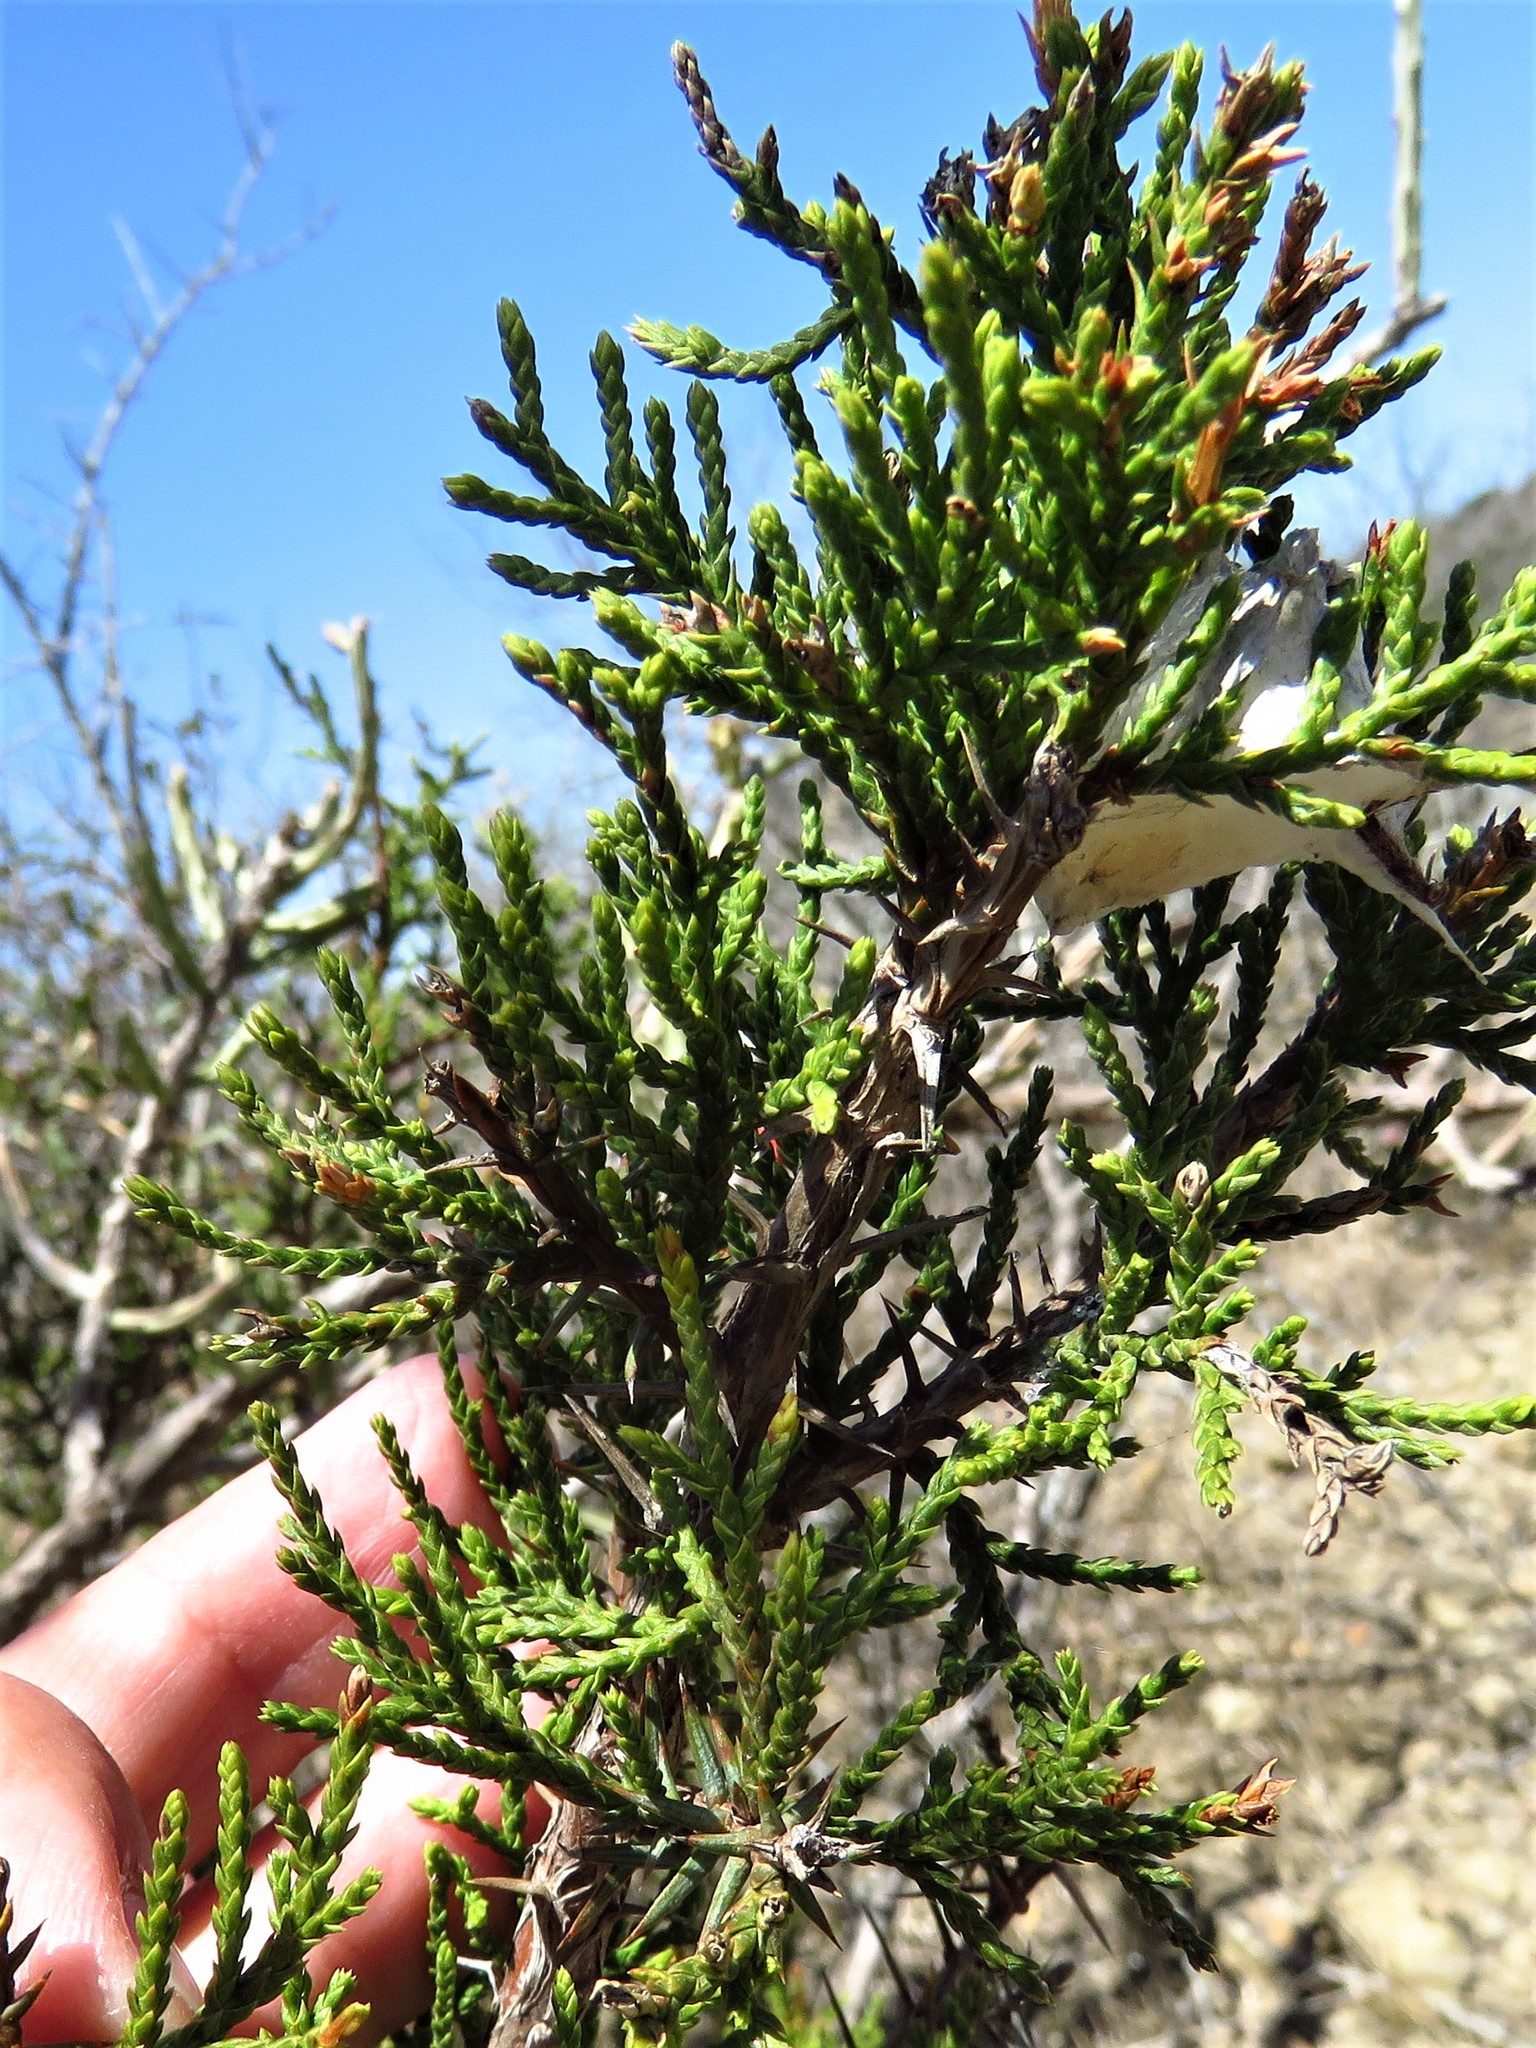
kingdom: Plantae
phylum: Tracheophyta
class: Pinopsida
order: Pinales
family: Cupressaceae
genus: Juniperus
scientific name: Juniperus ashei
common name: Mexican juniper
